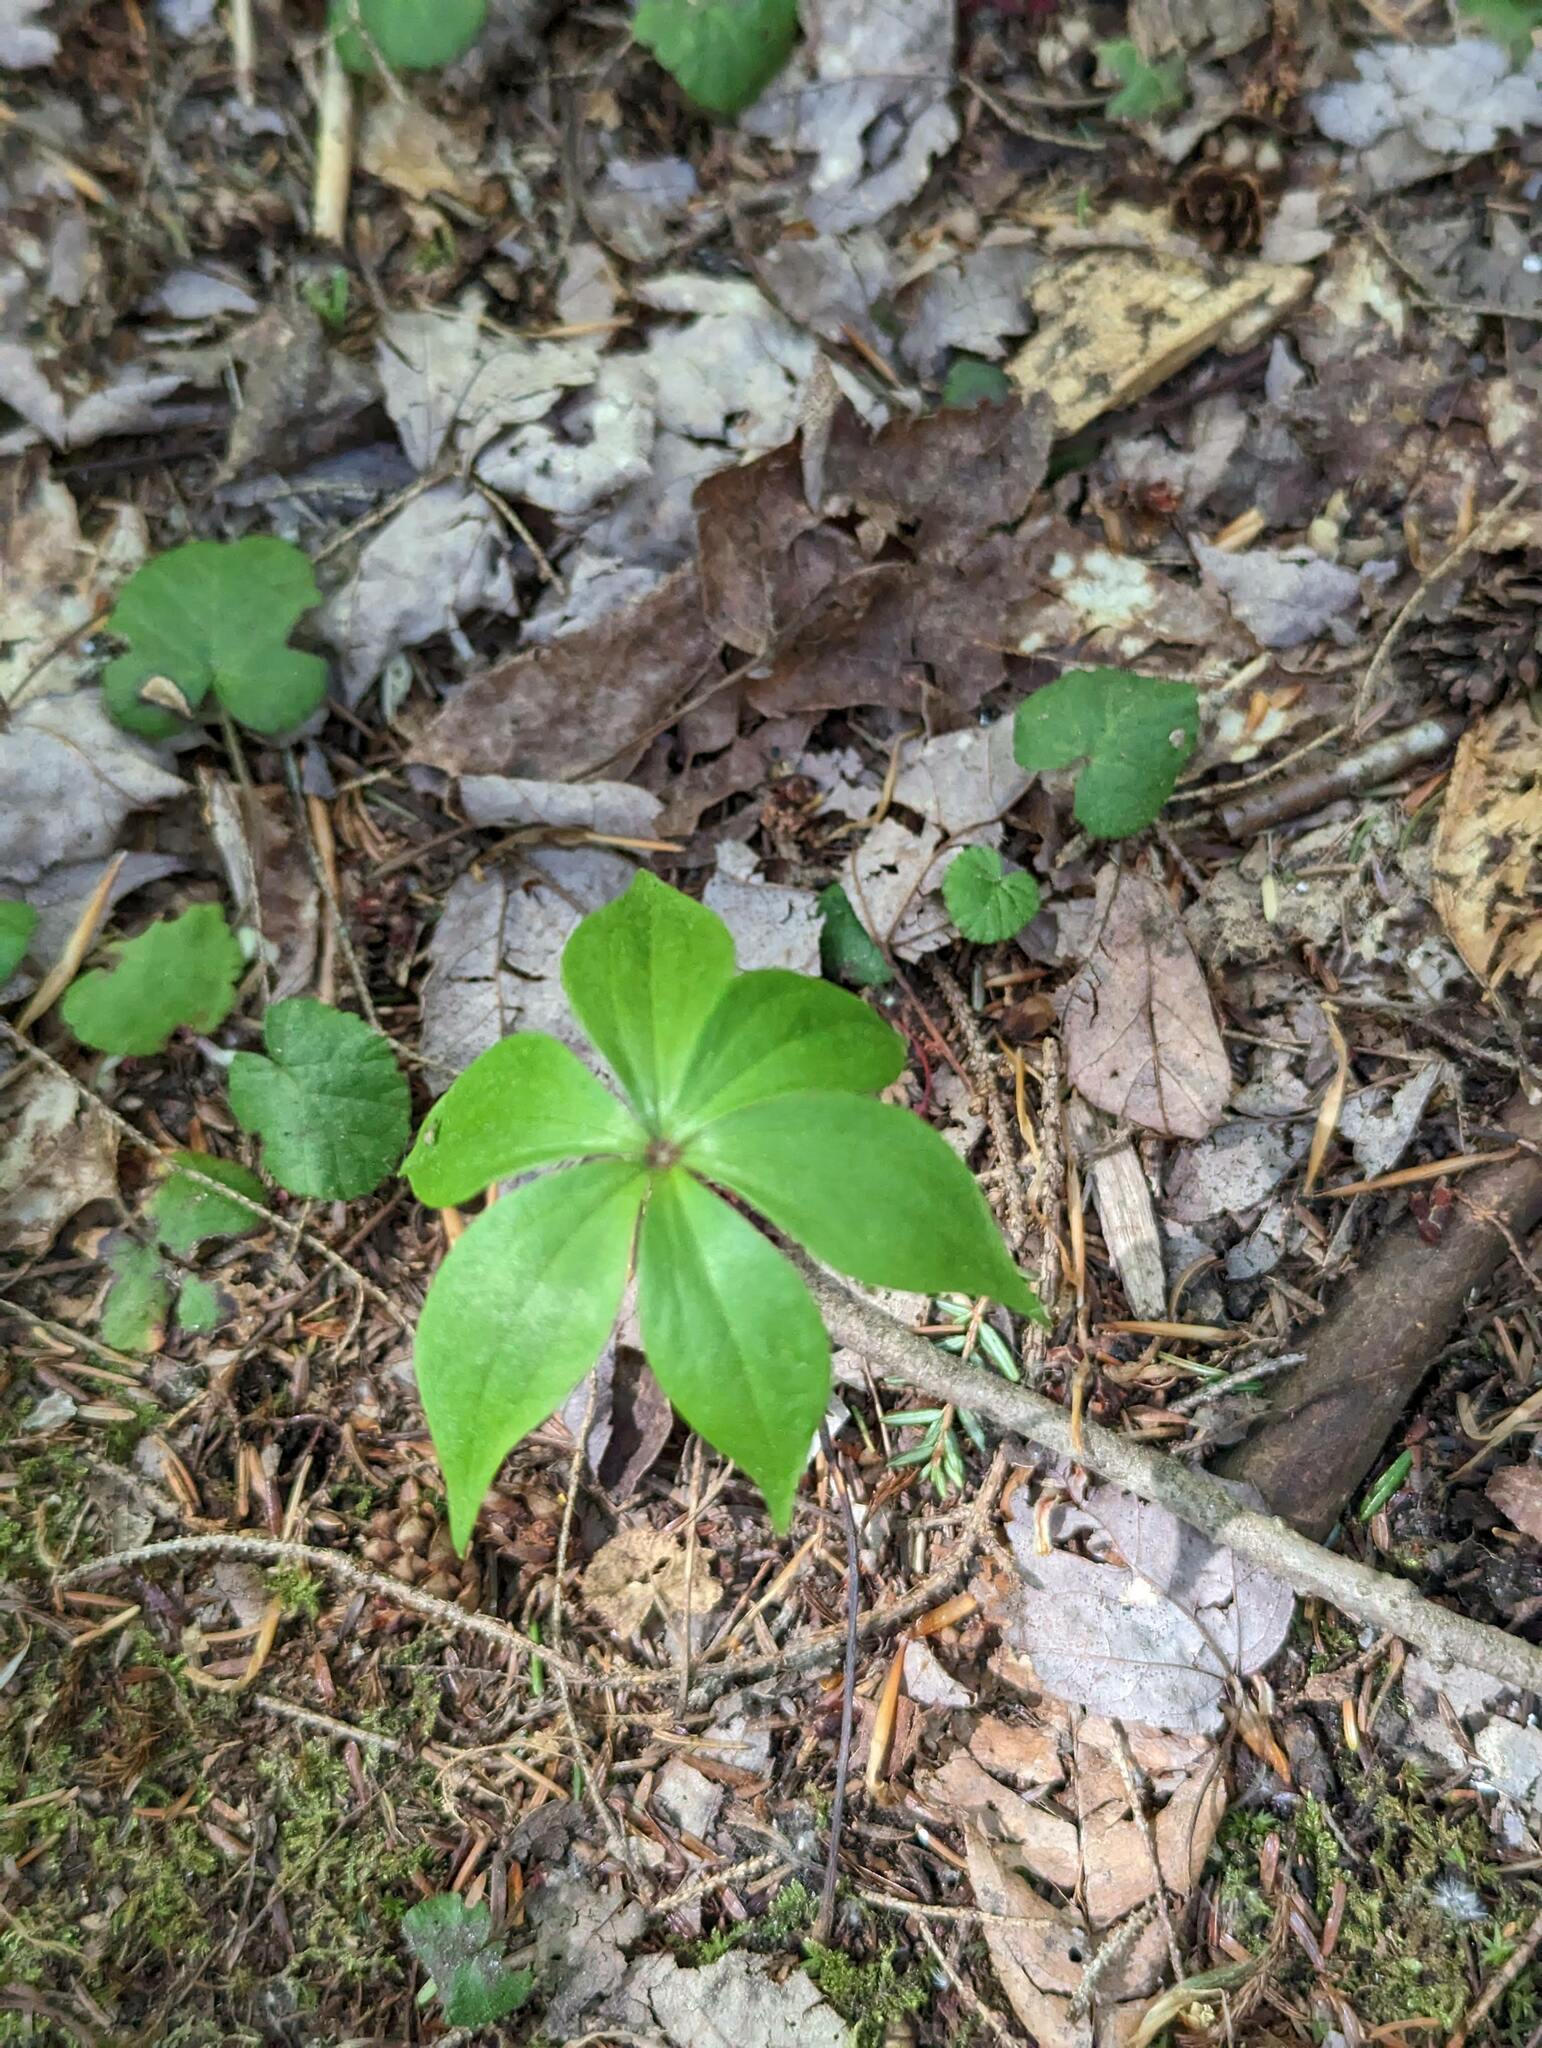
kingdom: Plantae
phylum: Tracheophyta
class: Liliopsida
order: Liliales
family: Liliaceae
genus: Medeola
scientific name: Medeola virginiana
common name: Indian cucumber-root
